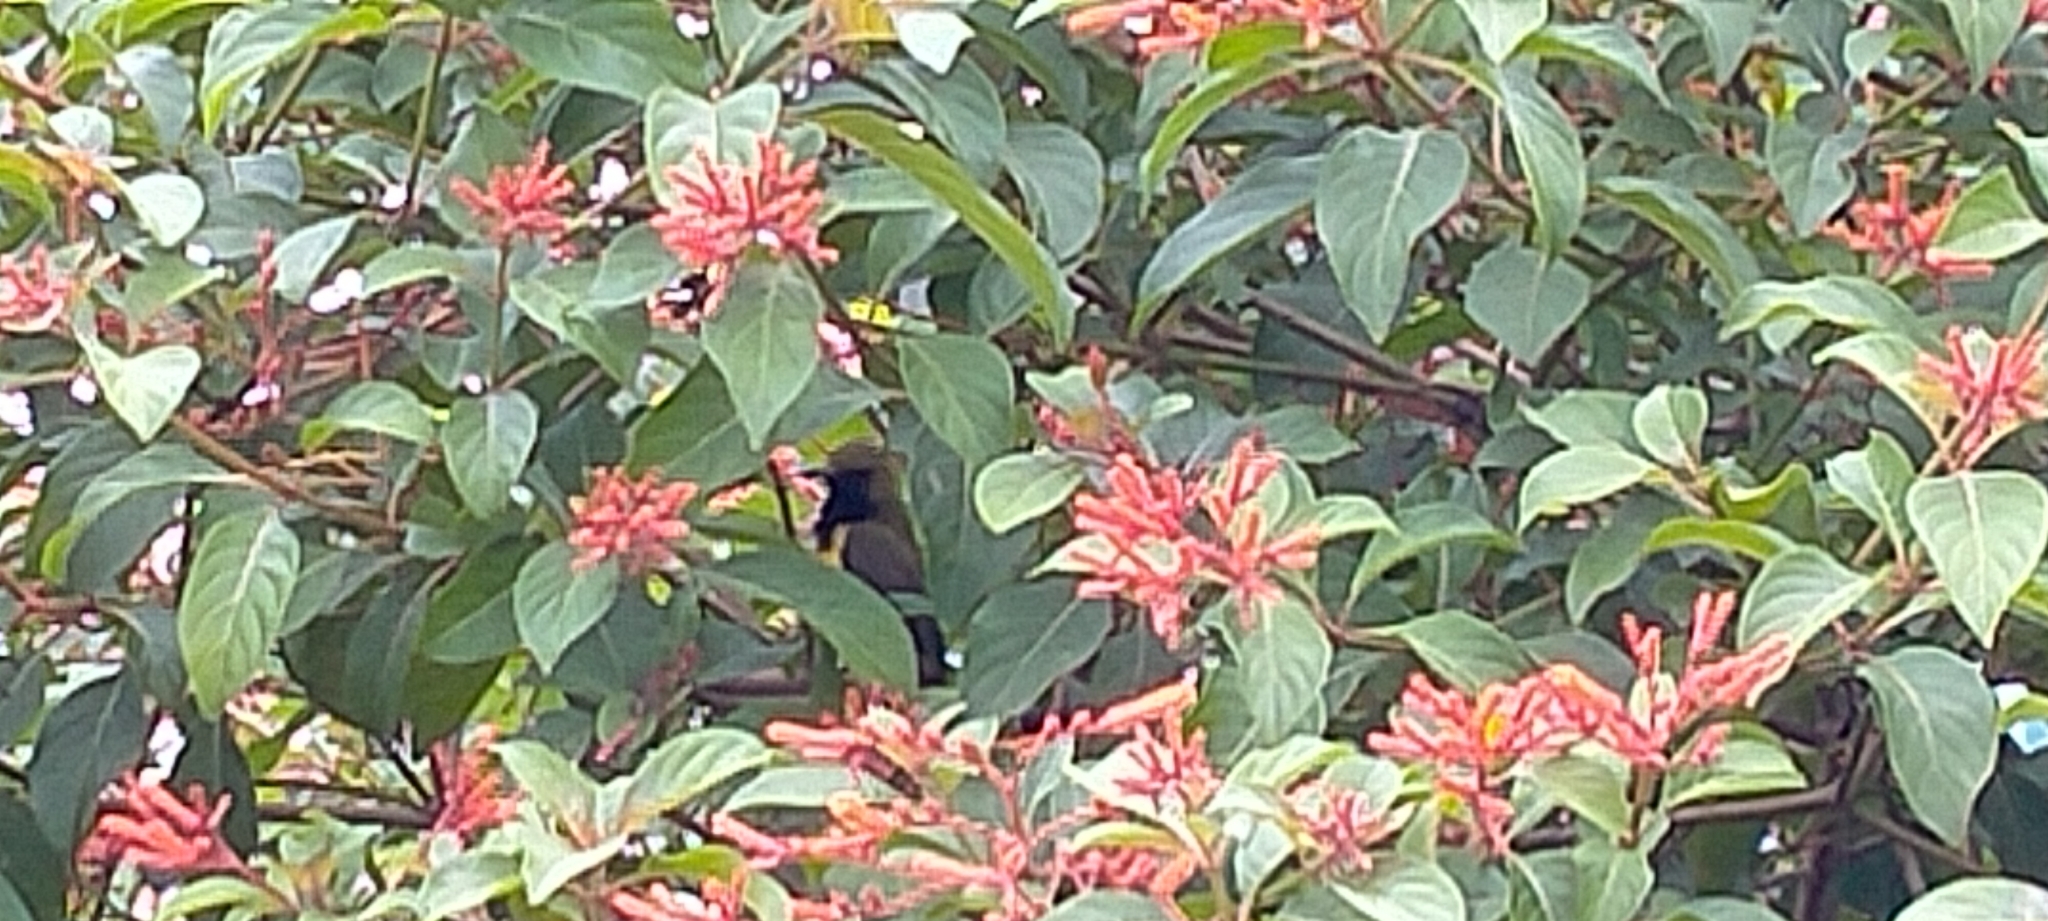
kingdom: Animalia
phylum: Chordata
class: Aves
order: Passeriformes
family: Nectariniidae
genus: Cinnyris
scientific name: Cinnyris jugularis
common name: Olive-backed sunbird
